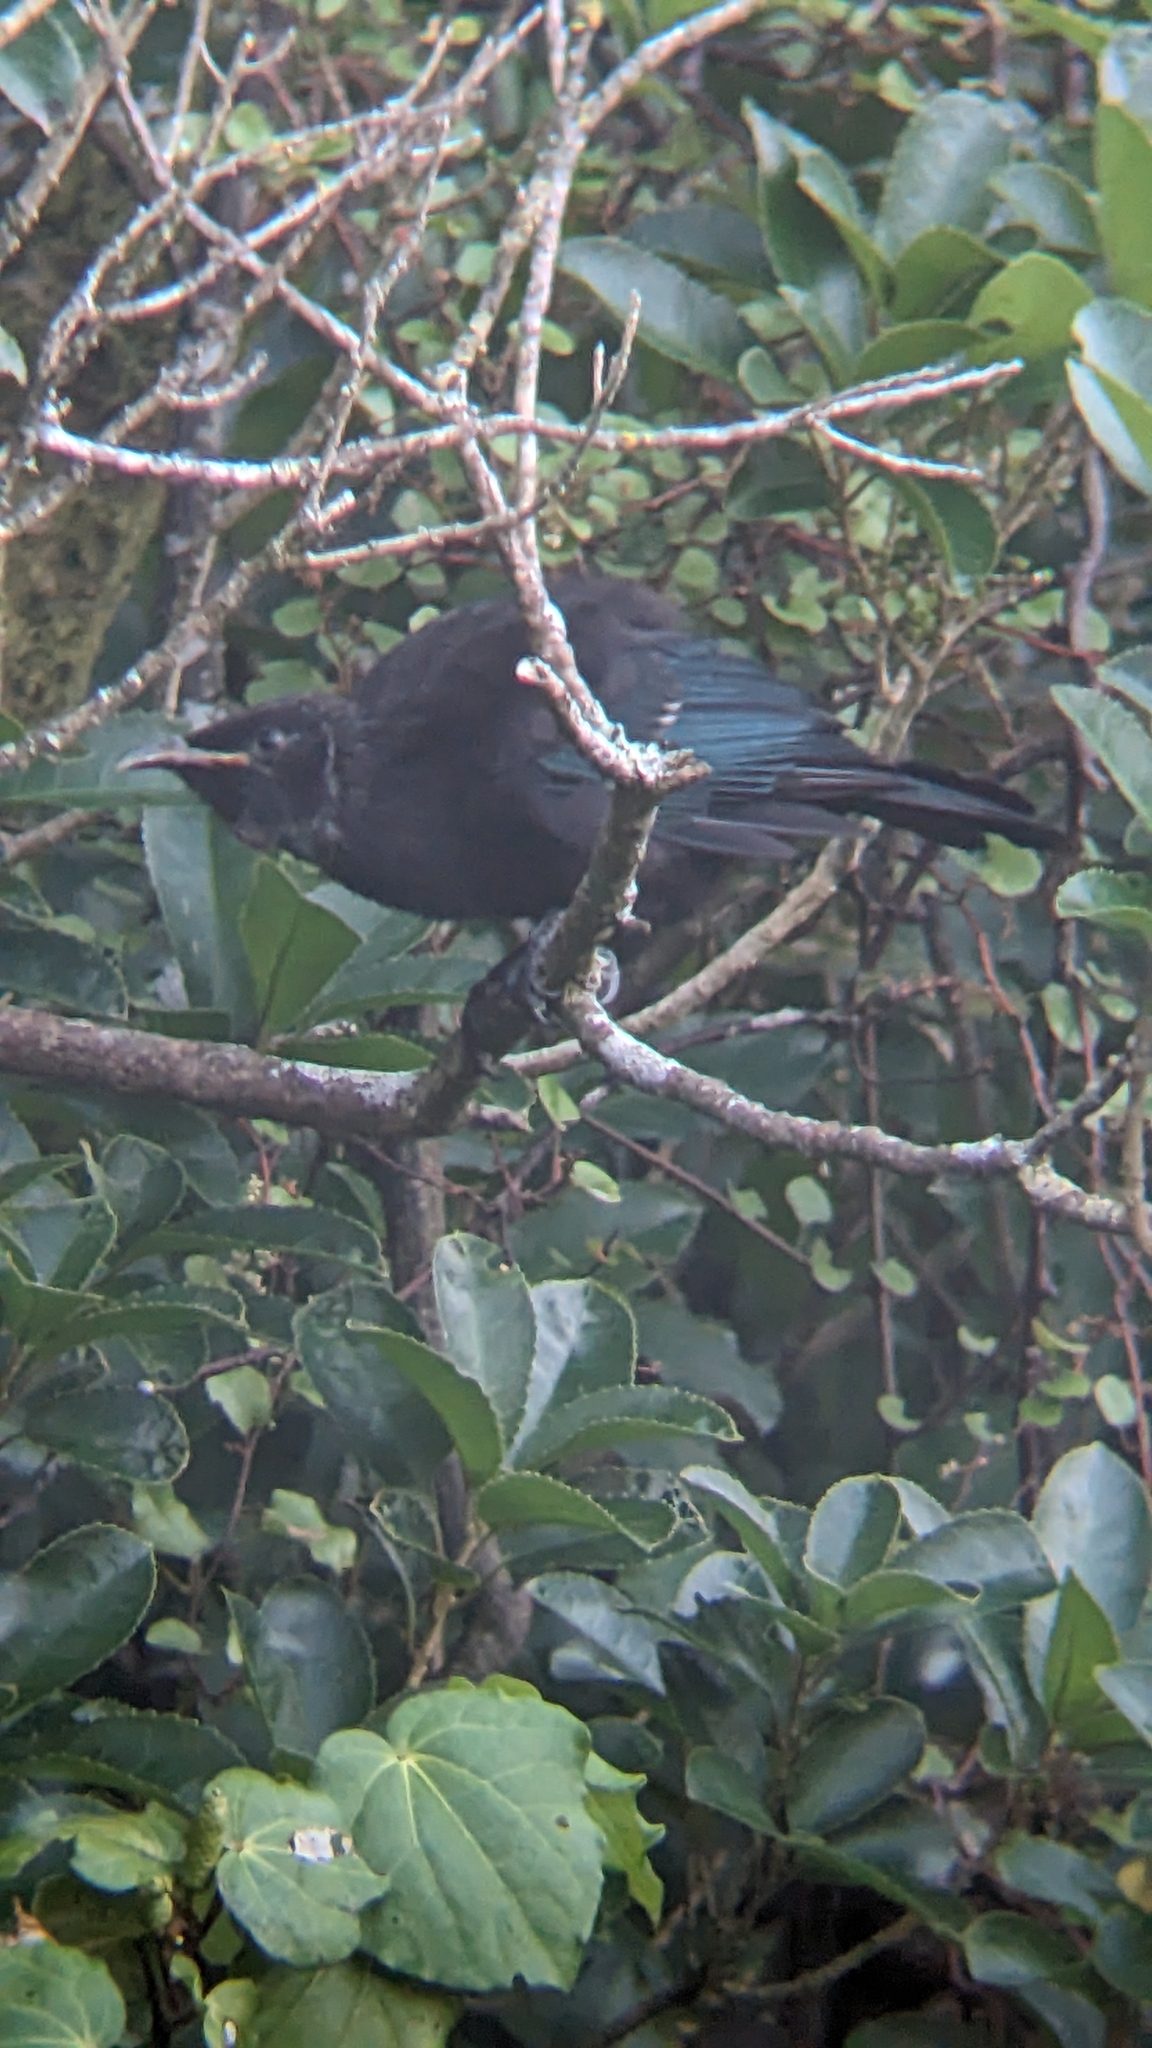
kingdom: Animalia
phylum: Chordata
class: Aves
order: Passeriformes
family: Meliphagidae
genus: Prosthemadera
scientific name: Prosthemadera novaeseelandiae
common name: Tui
